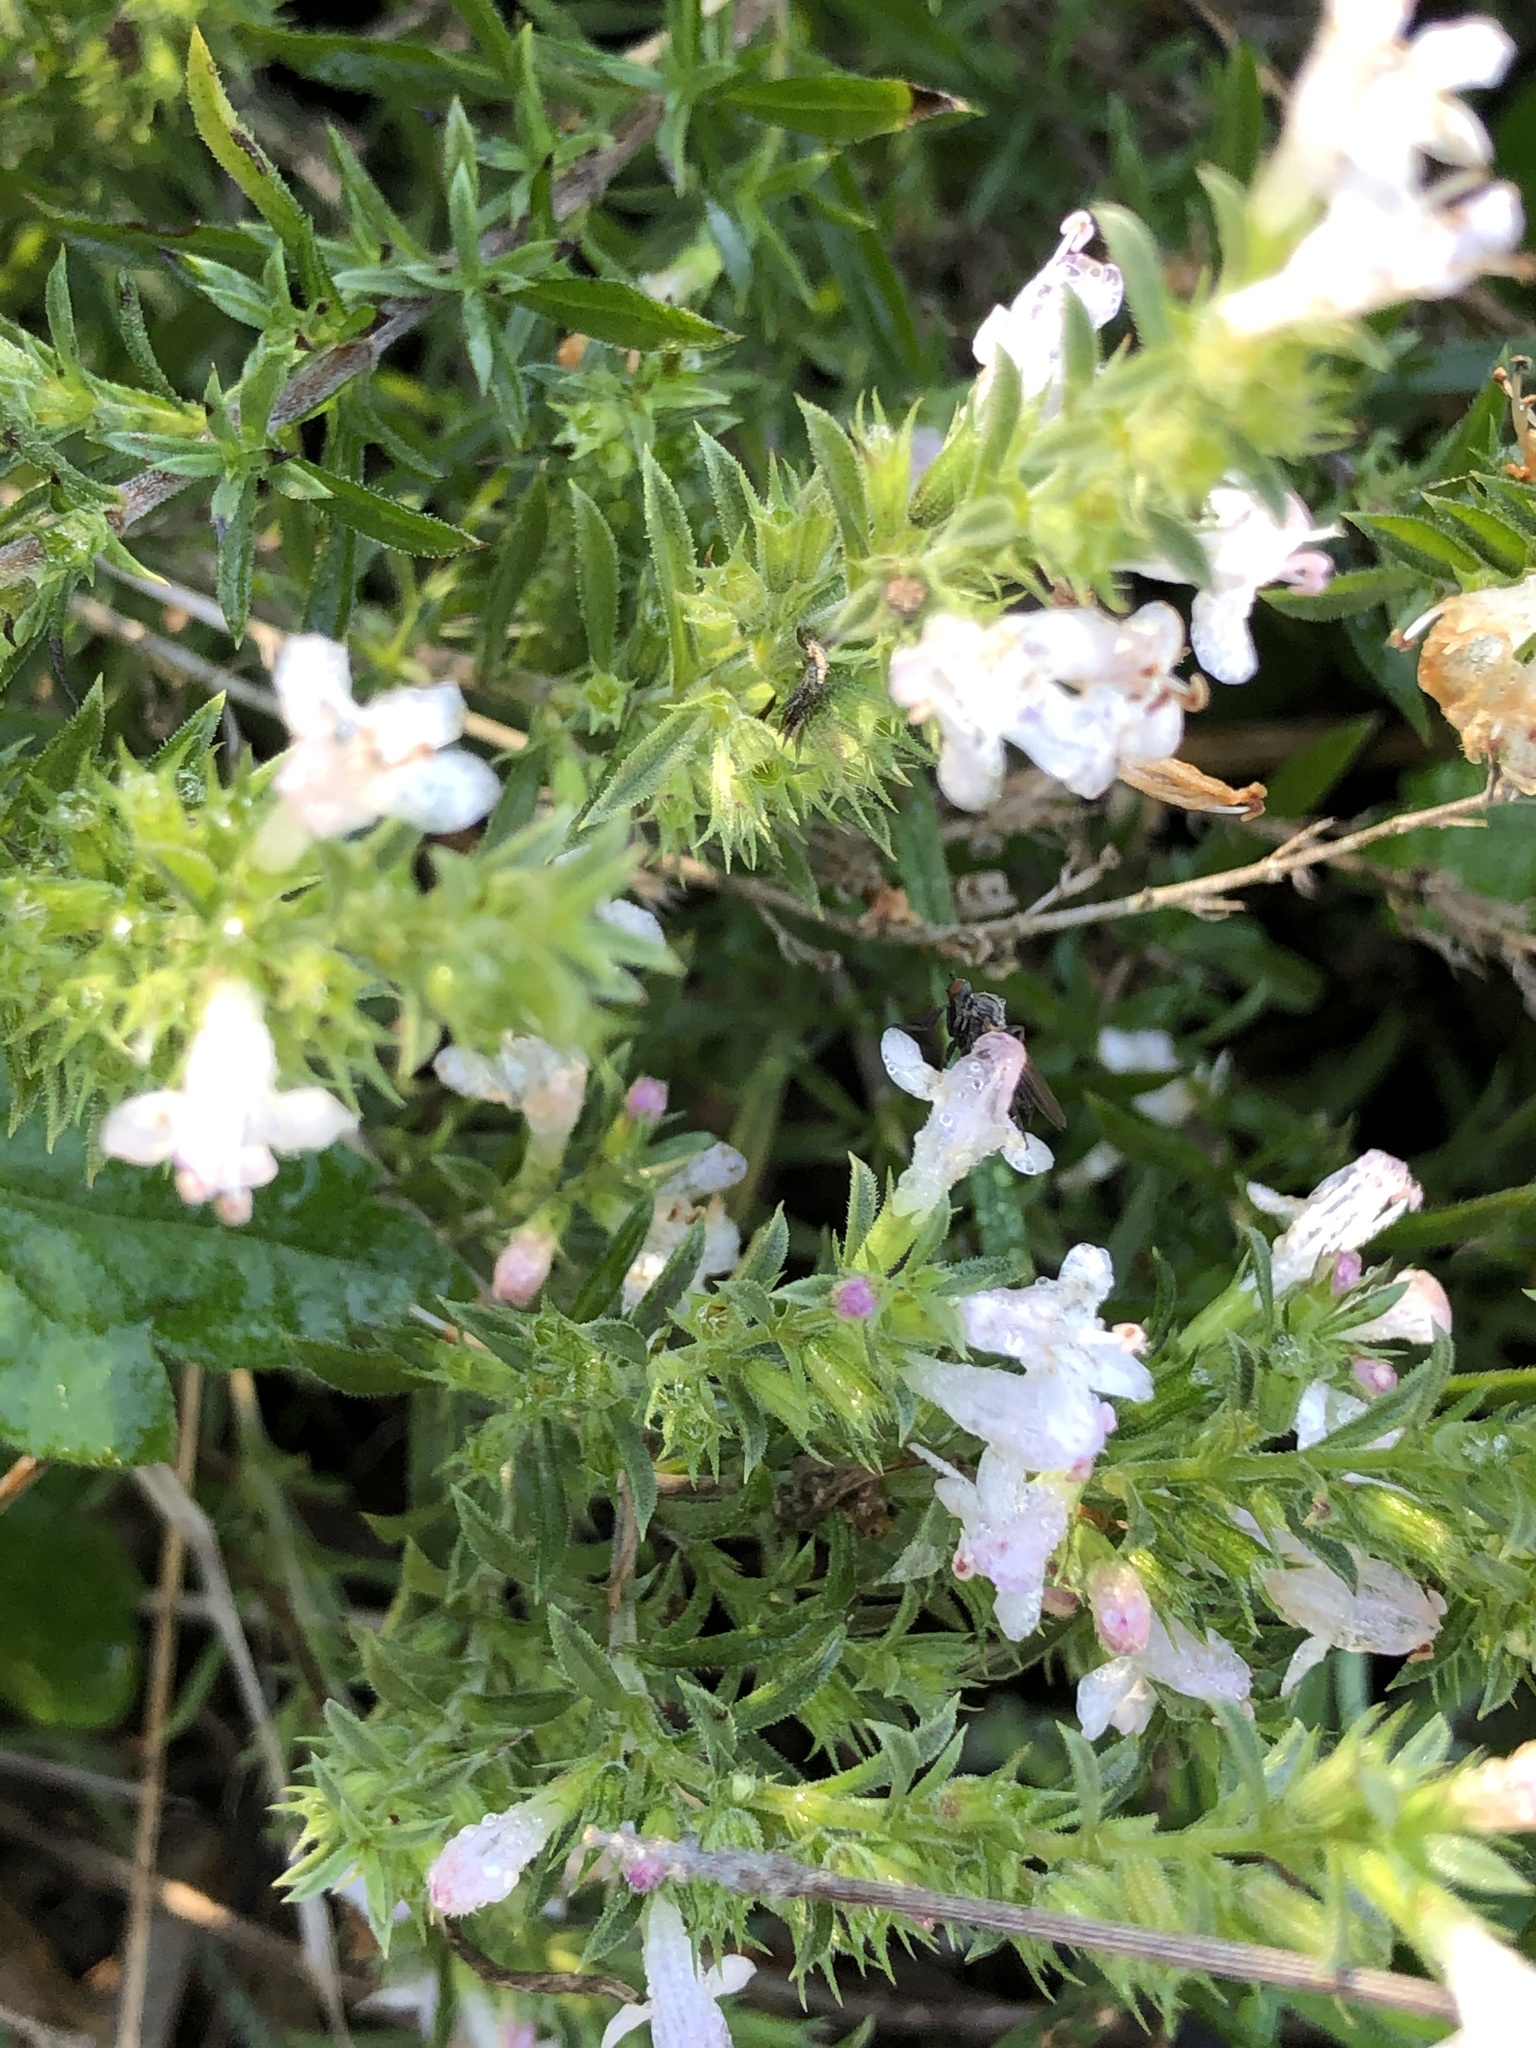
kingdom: Plantae
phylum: Tracheophyta
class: Magnoliopsida
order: Lamiales
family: Lamiaceae
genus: Satureja
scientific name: Satureja montana
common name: Winter savory
